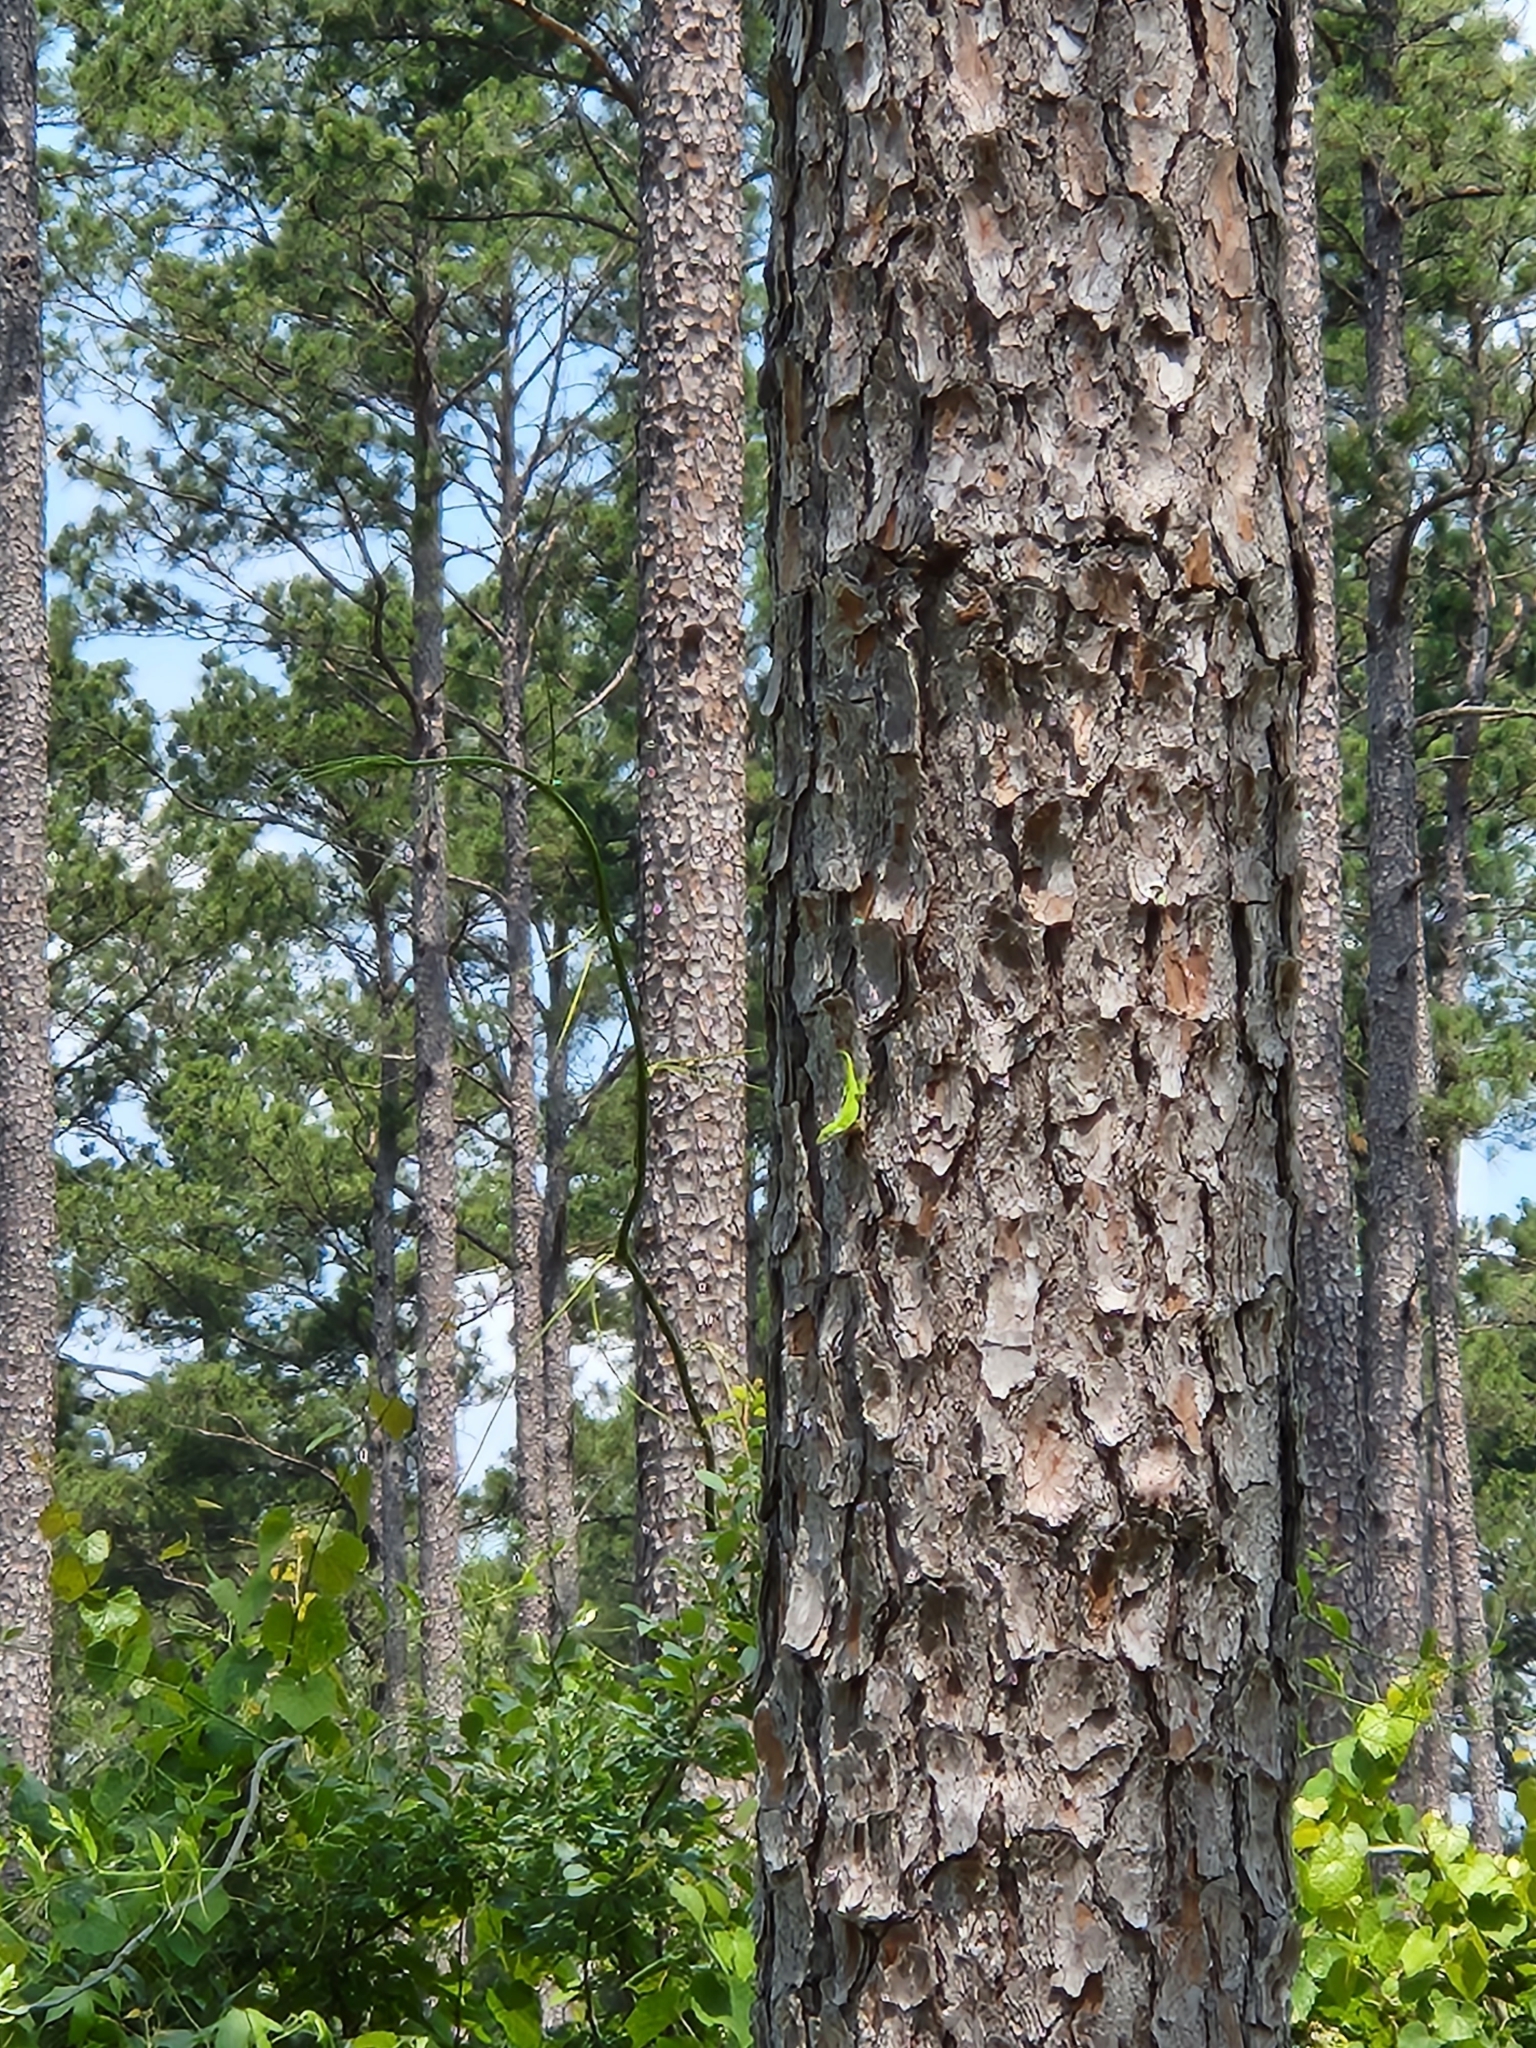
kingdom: Animalia
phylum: Chordata
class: Squamata
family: Dactyloidae
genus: Anolis
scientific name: Anolis carolinensis
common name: Green anole
